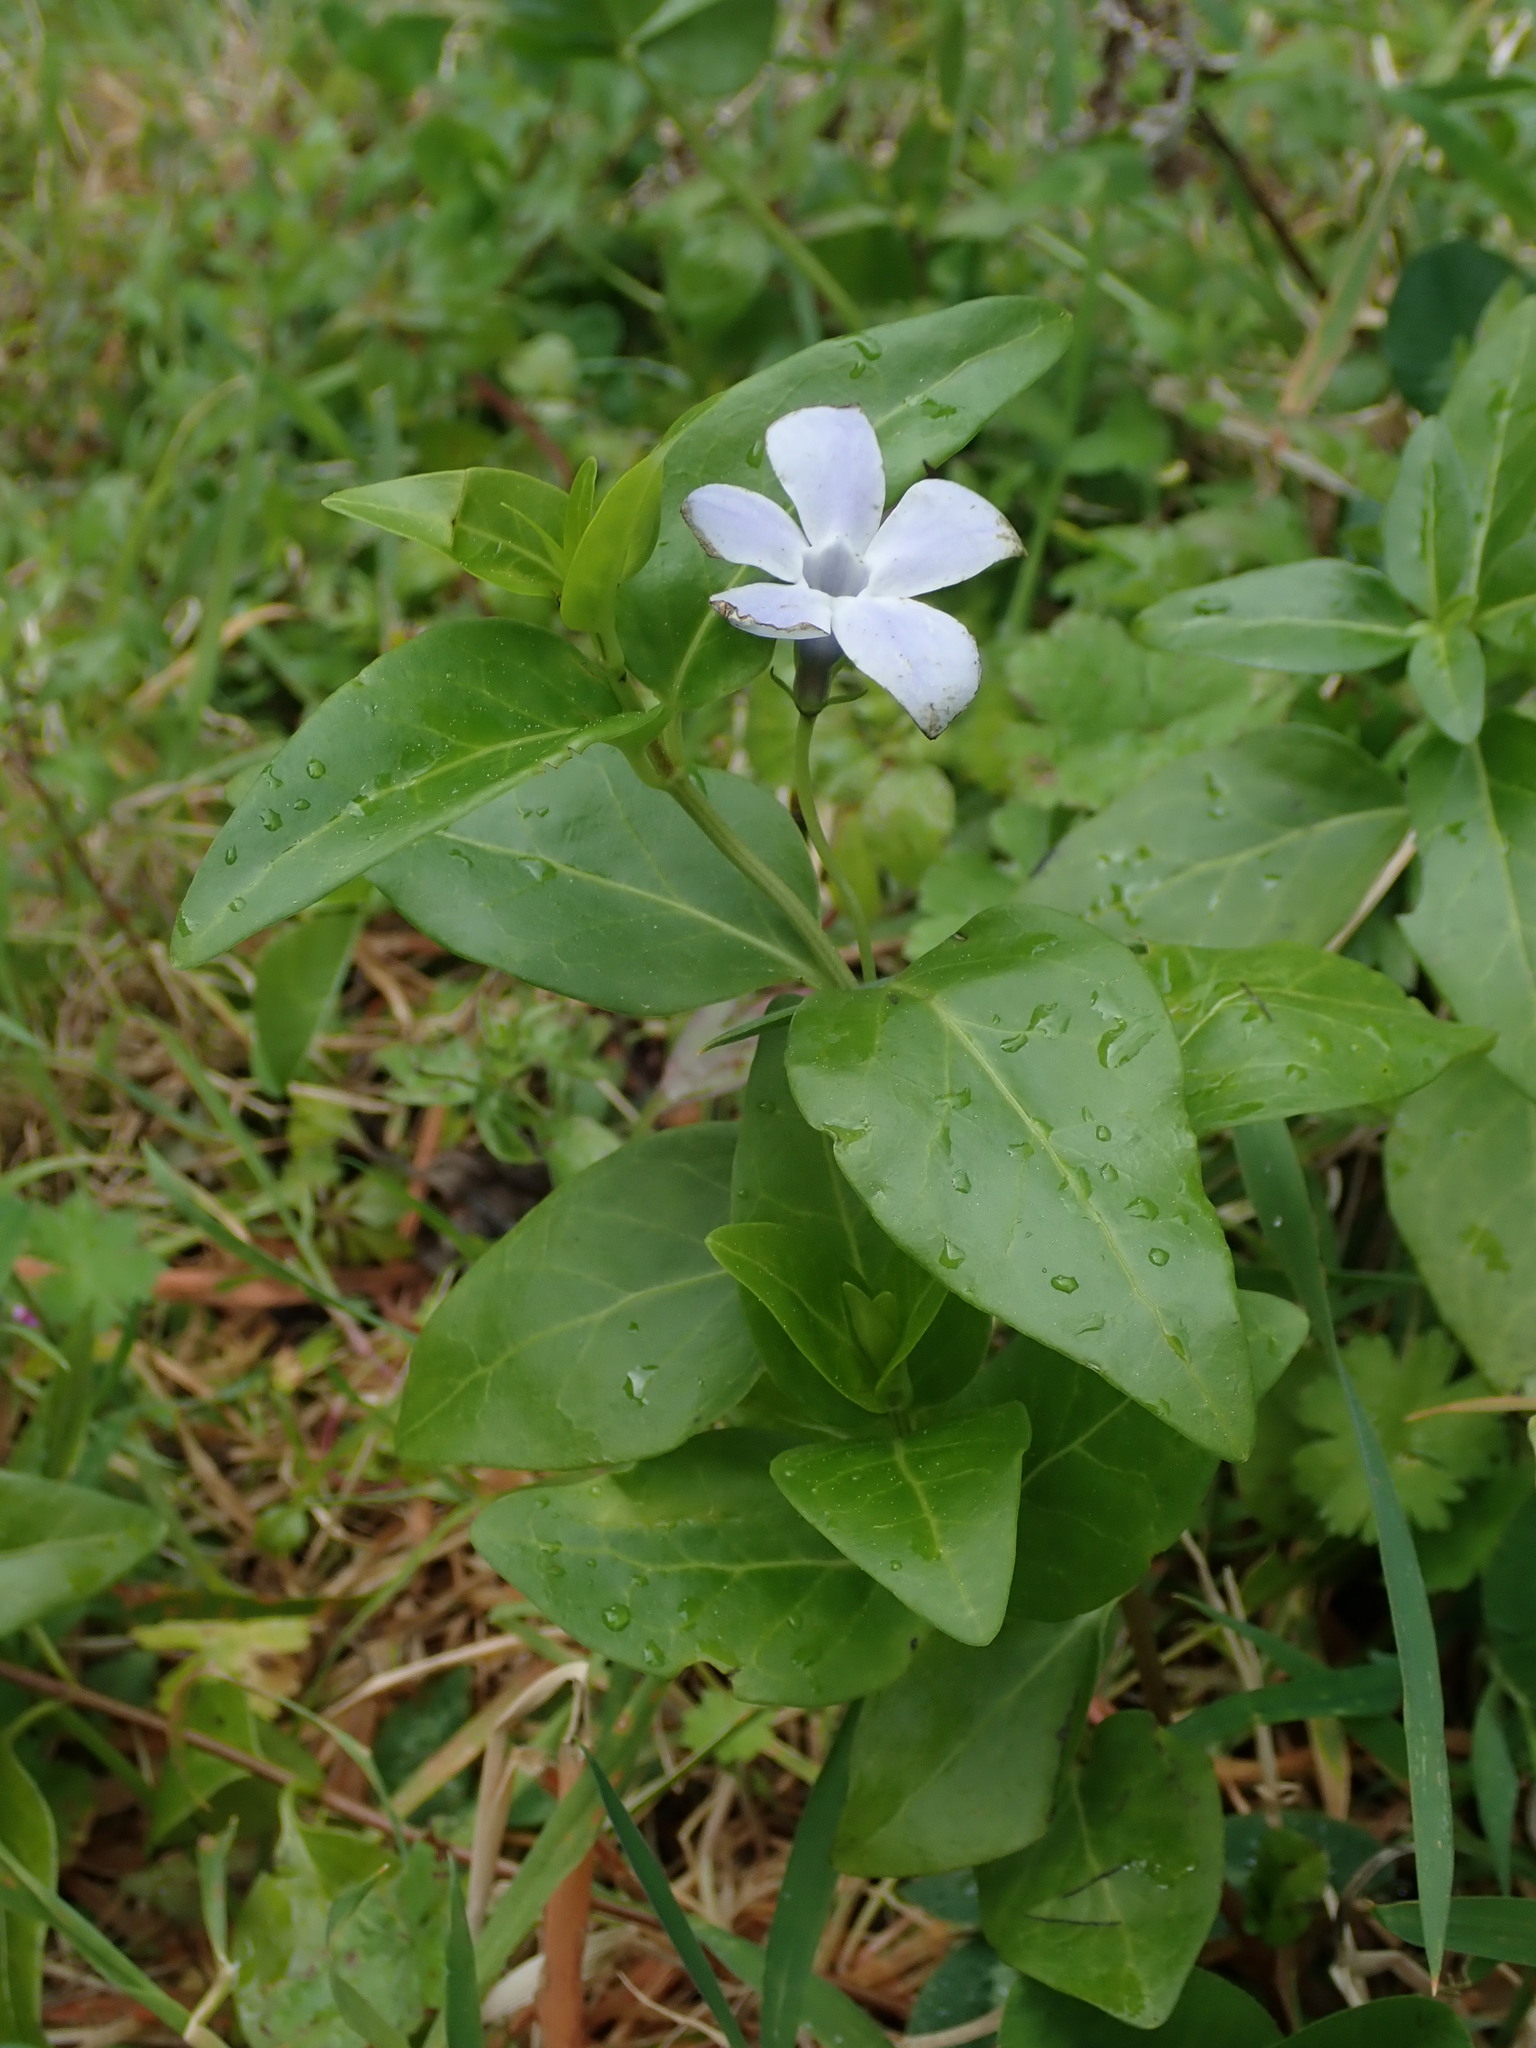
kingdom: Plantae
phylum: Tracheophyta
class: Magnoliopsida
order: Gentianales
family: Apocynaceae
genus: Vinca
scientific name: Vinca difformis
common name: Intermediate periwinkle
